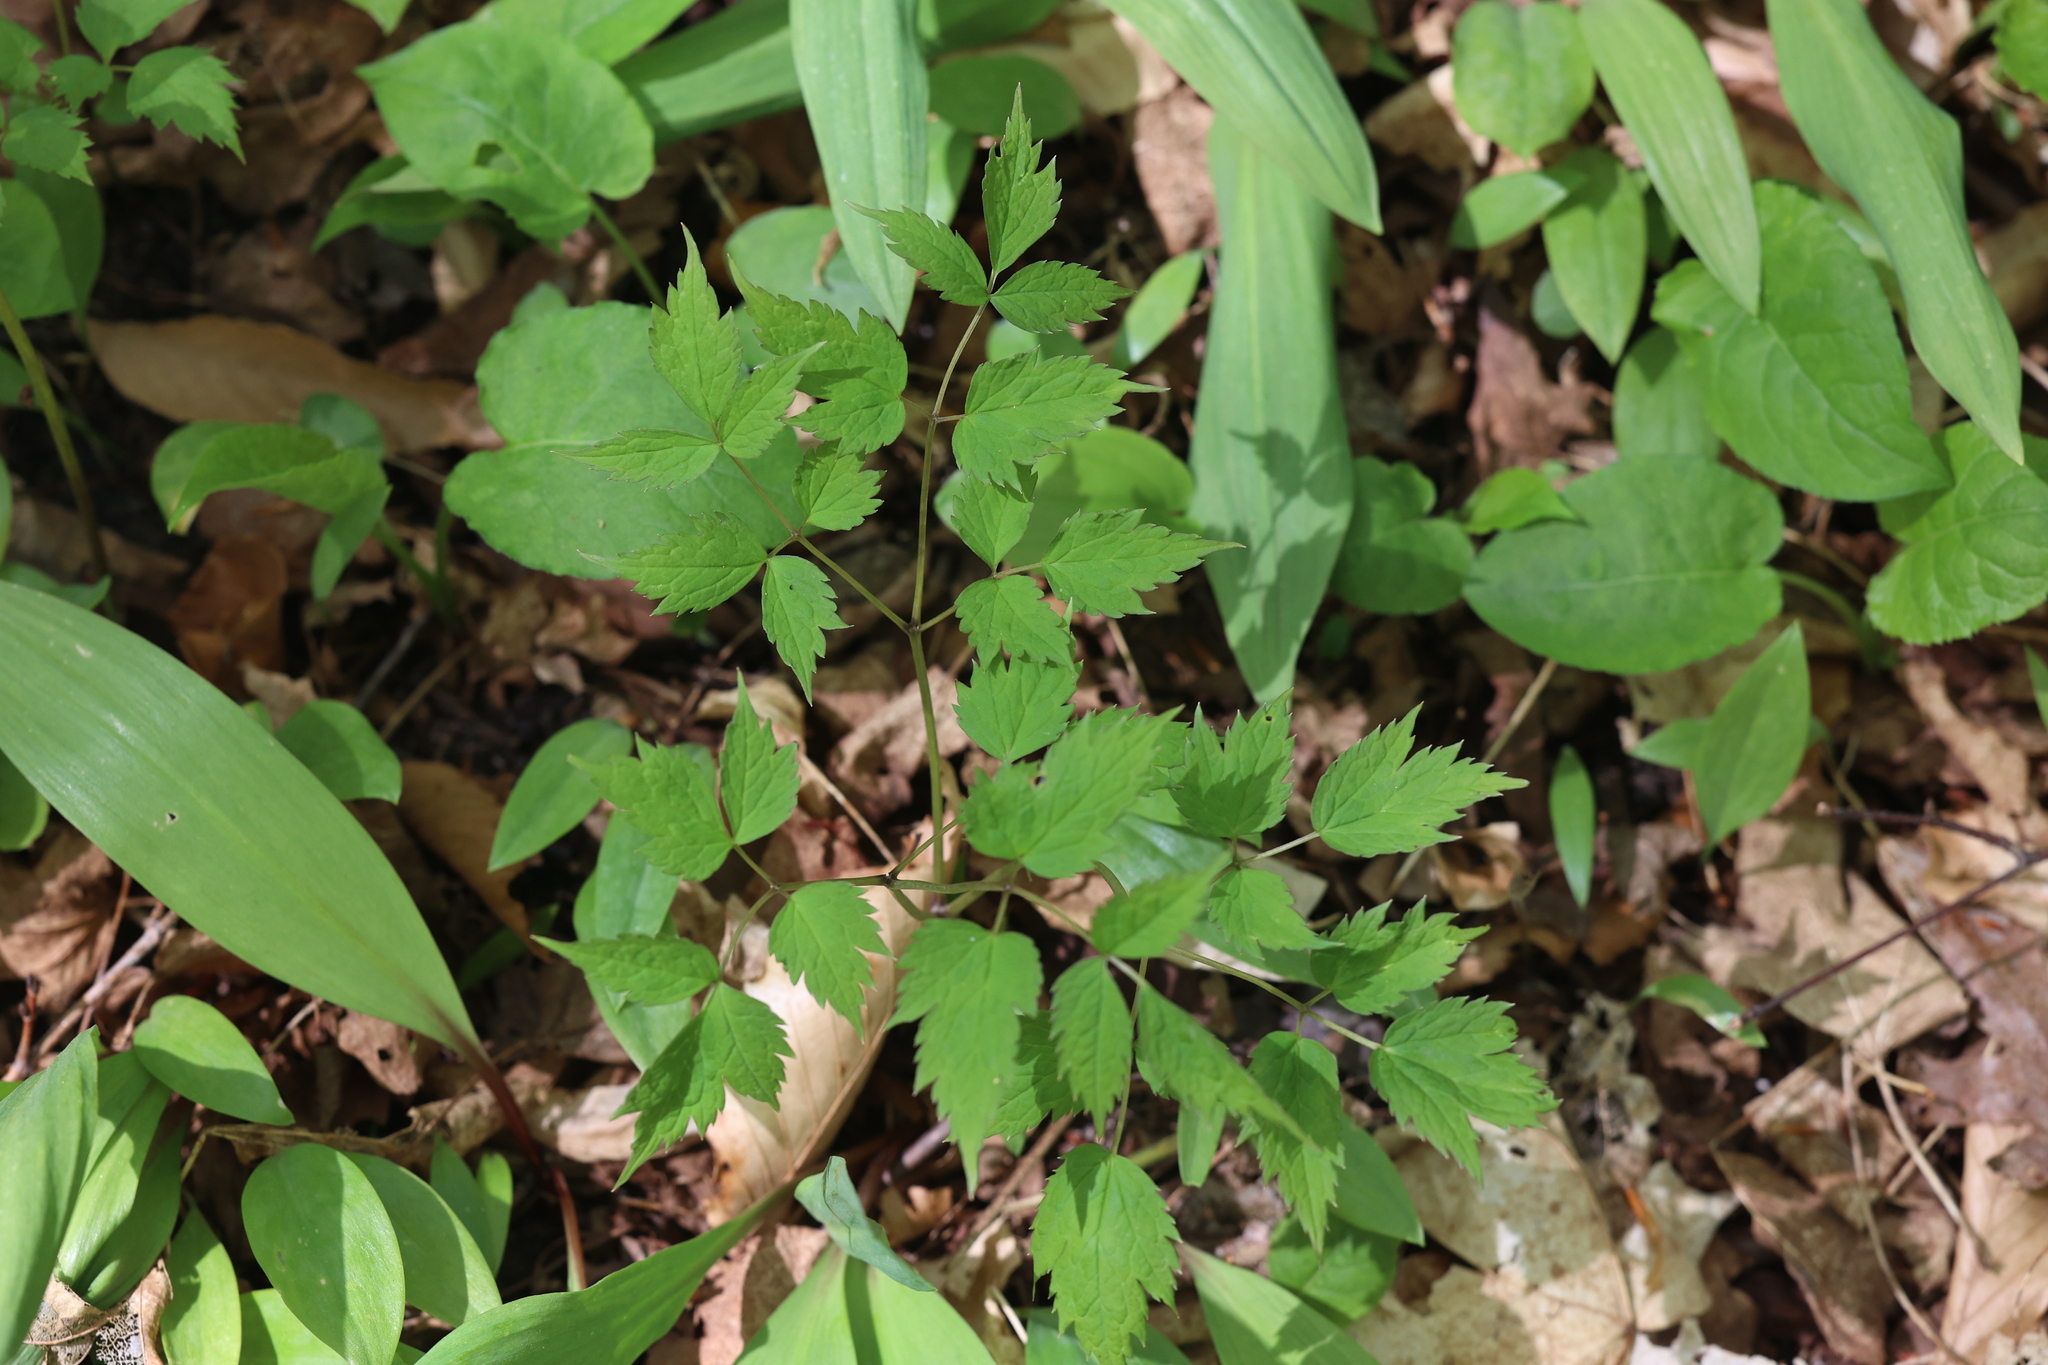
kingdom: Plantae
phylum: Tracheophyta
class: Magnoliopsida
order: Ranunculales
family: Ranunculaceae
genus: Actaea
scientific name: Actaea pachypoda
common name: Doll's-eyes
